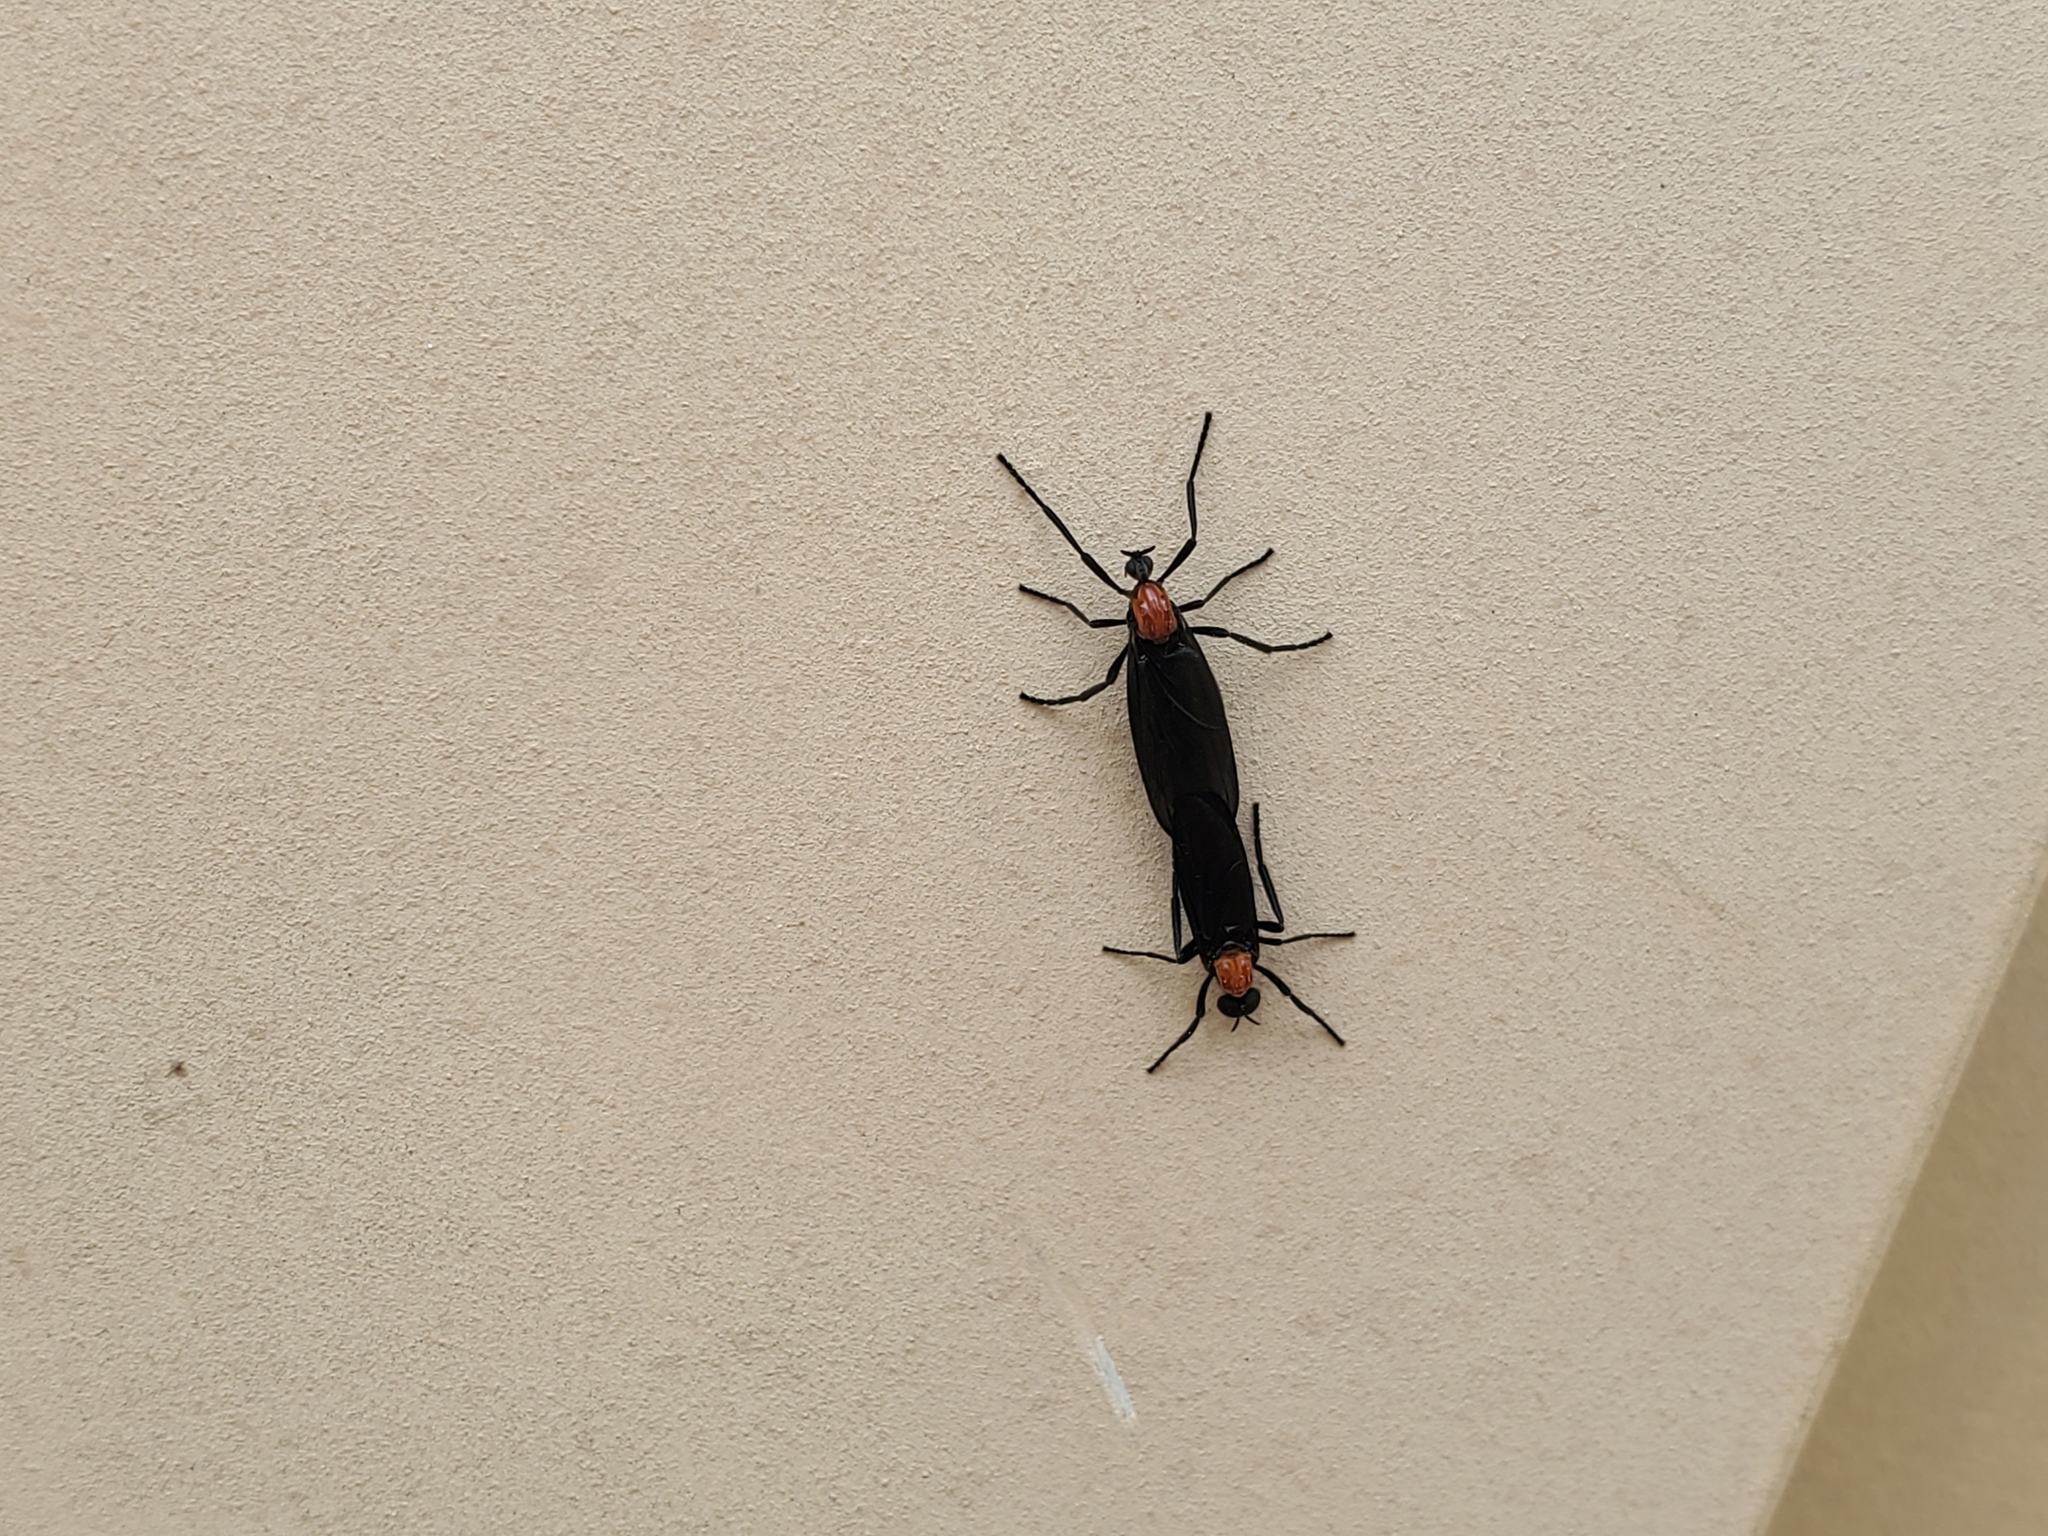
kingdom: Animalia
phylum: Arthropoda
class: Insecta
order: Diptera
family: Bibionidae
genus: Plecia
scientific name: Plecia nearctica
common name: March fly
